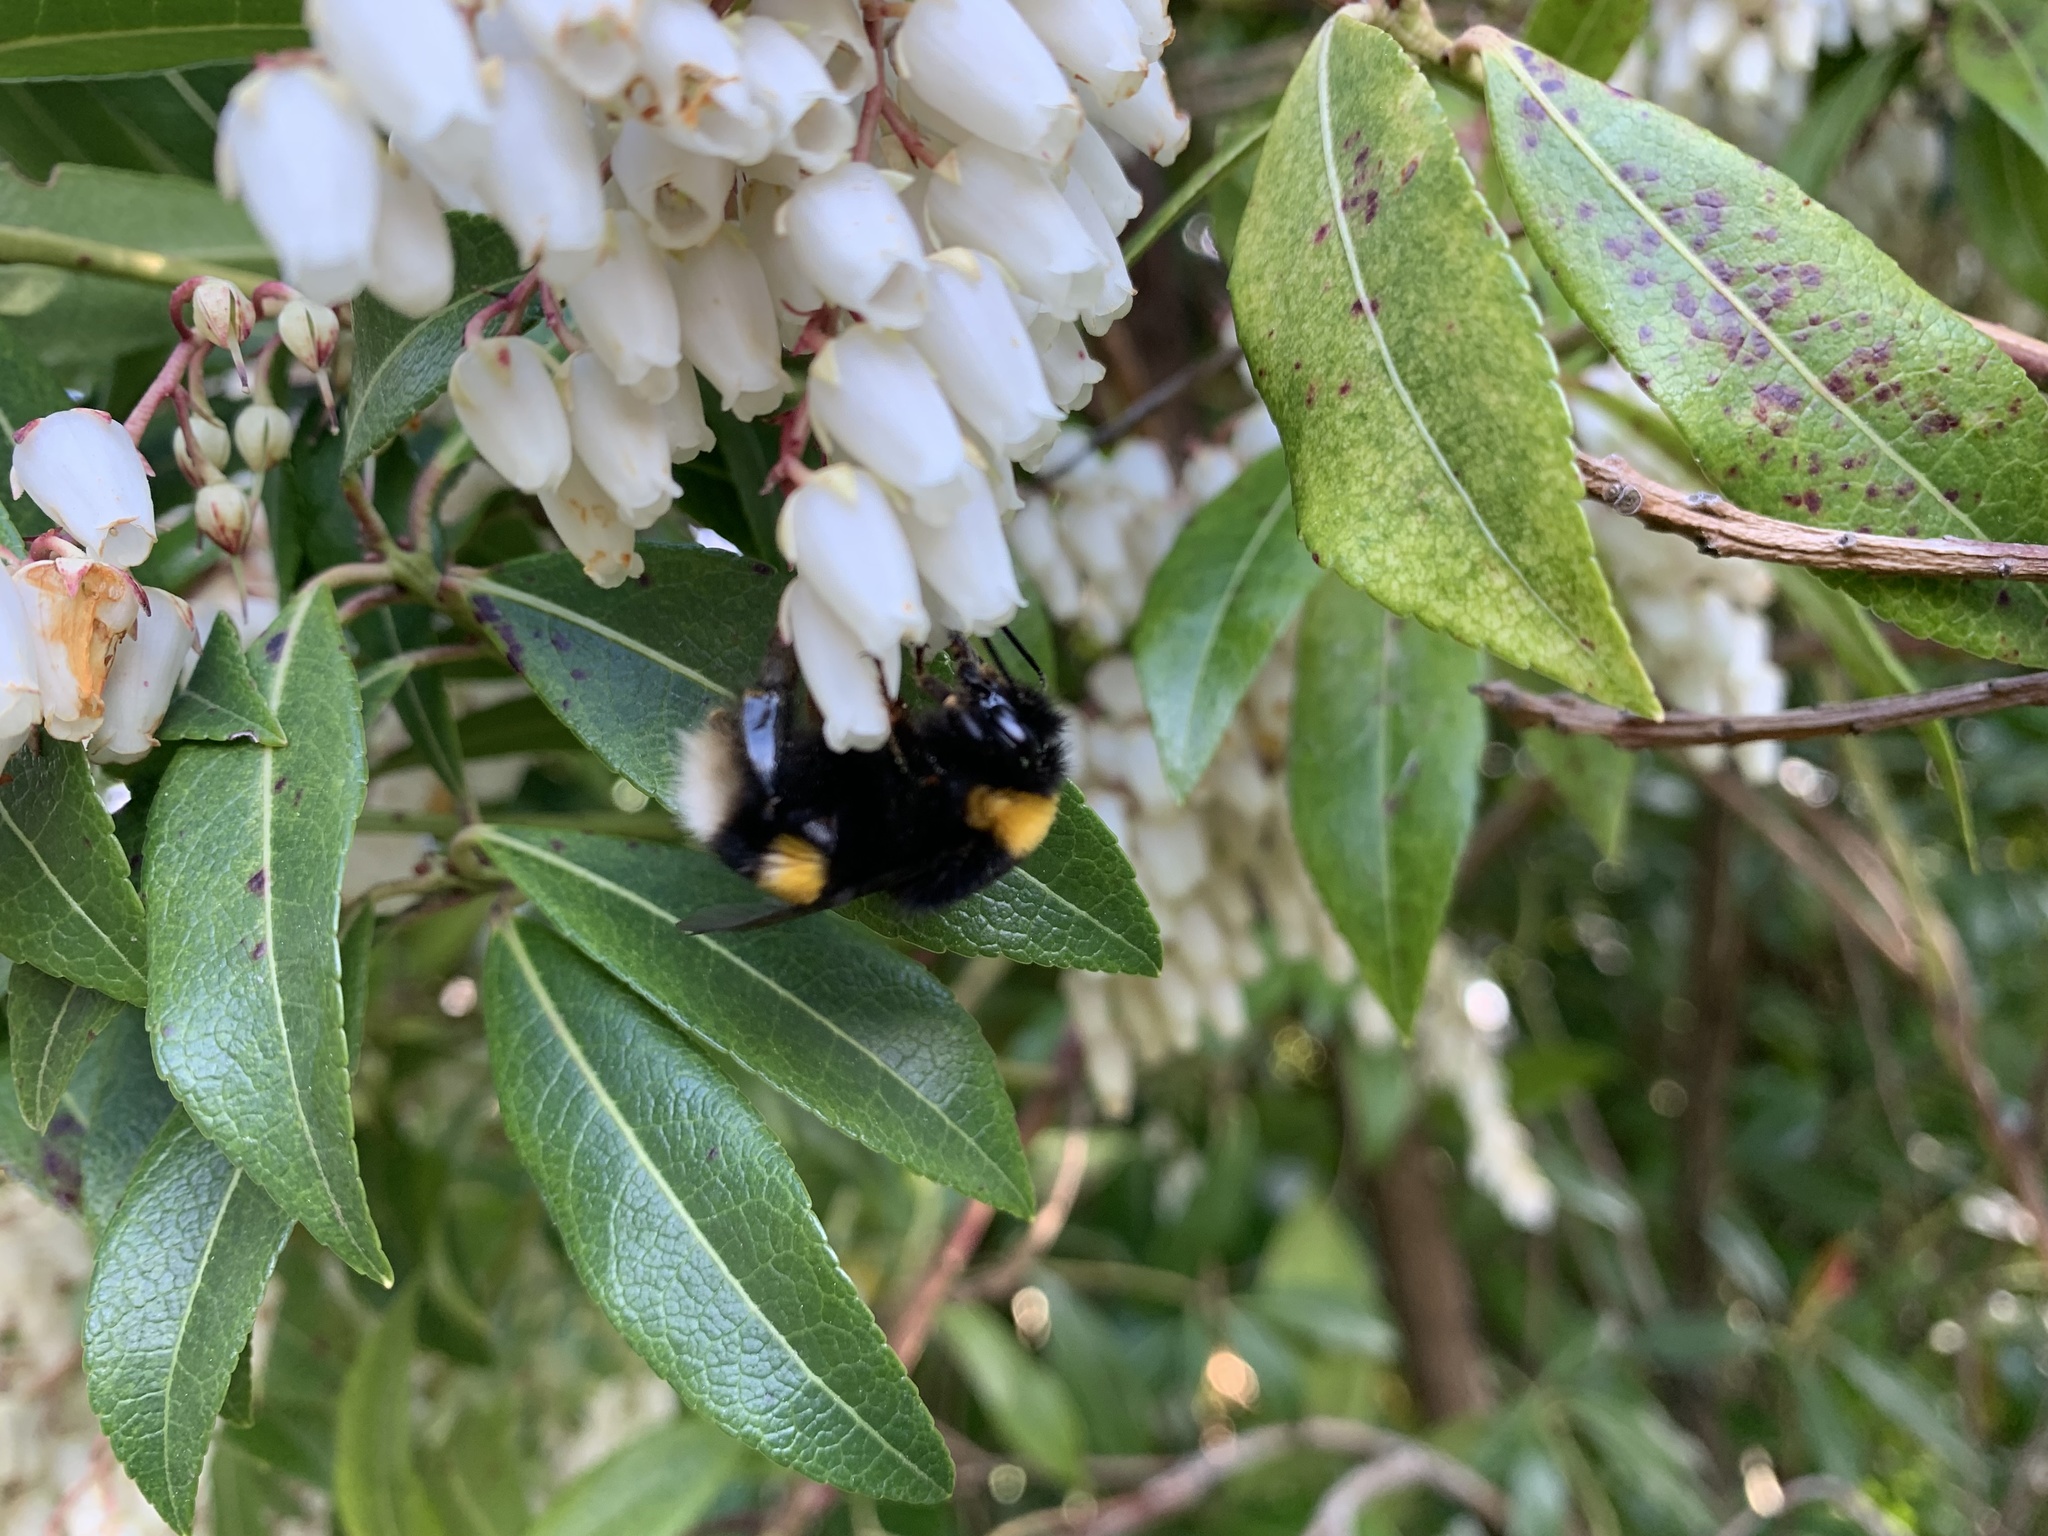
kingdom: Animalia
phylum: Arthropoda
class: Insecta
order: Hymenoptera
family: Apidae
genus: Bombus
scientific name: Bombus terrestris
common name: Buff-tailed bumblebee
